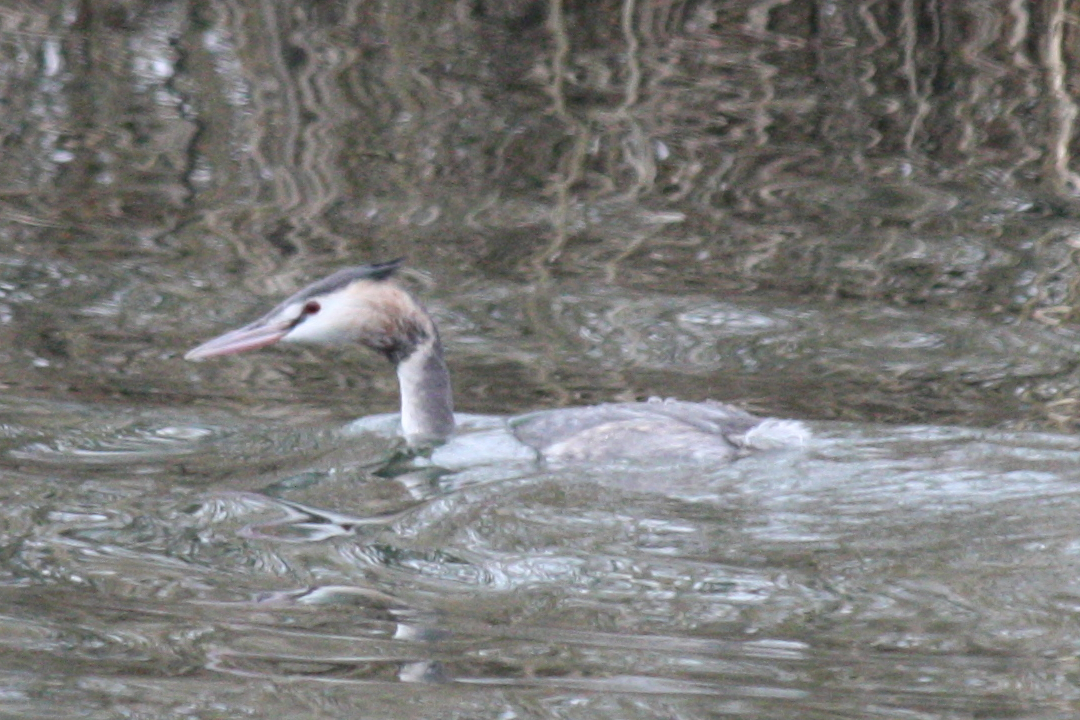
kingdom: Animalia
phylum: Chordata
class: Aves
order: Podicipediformes
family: Podicipedidae
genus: Podiceps
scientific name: Podiceps cristatus
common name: Great crested grebe
